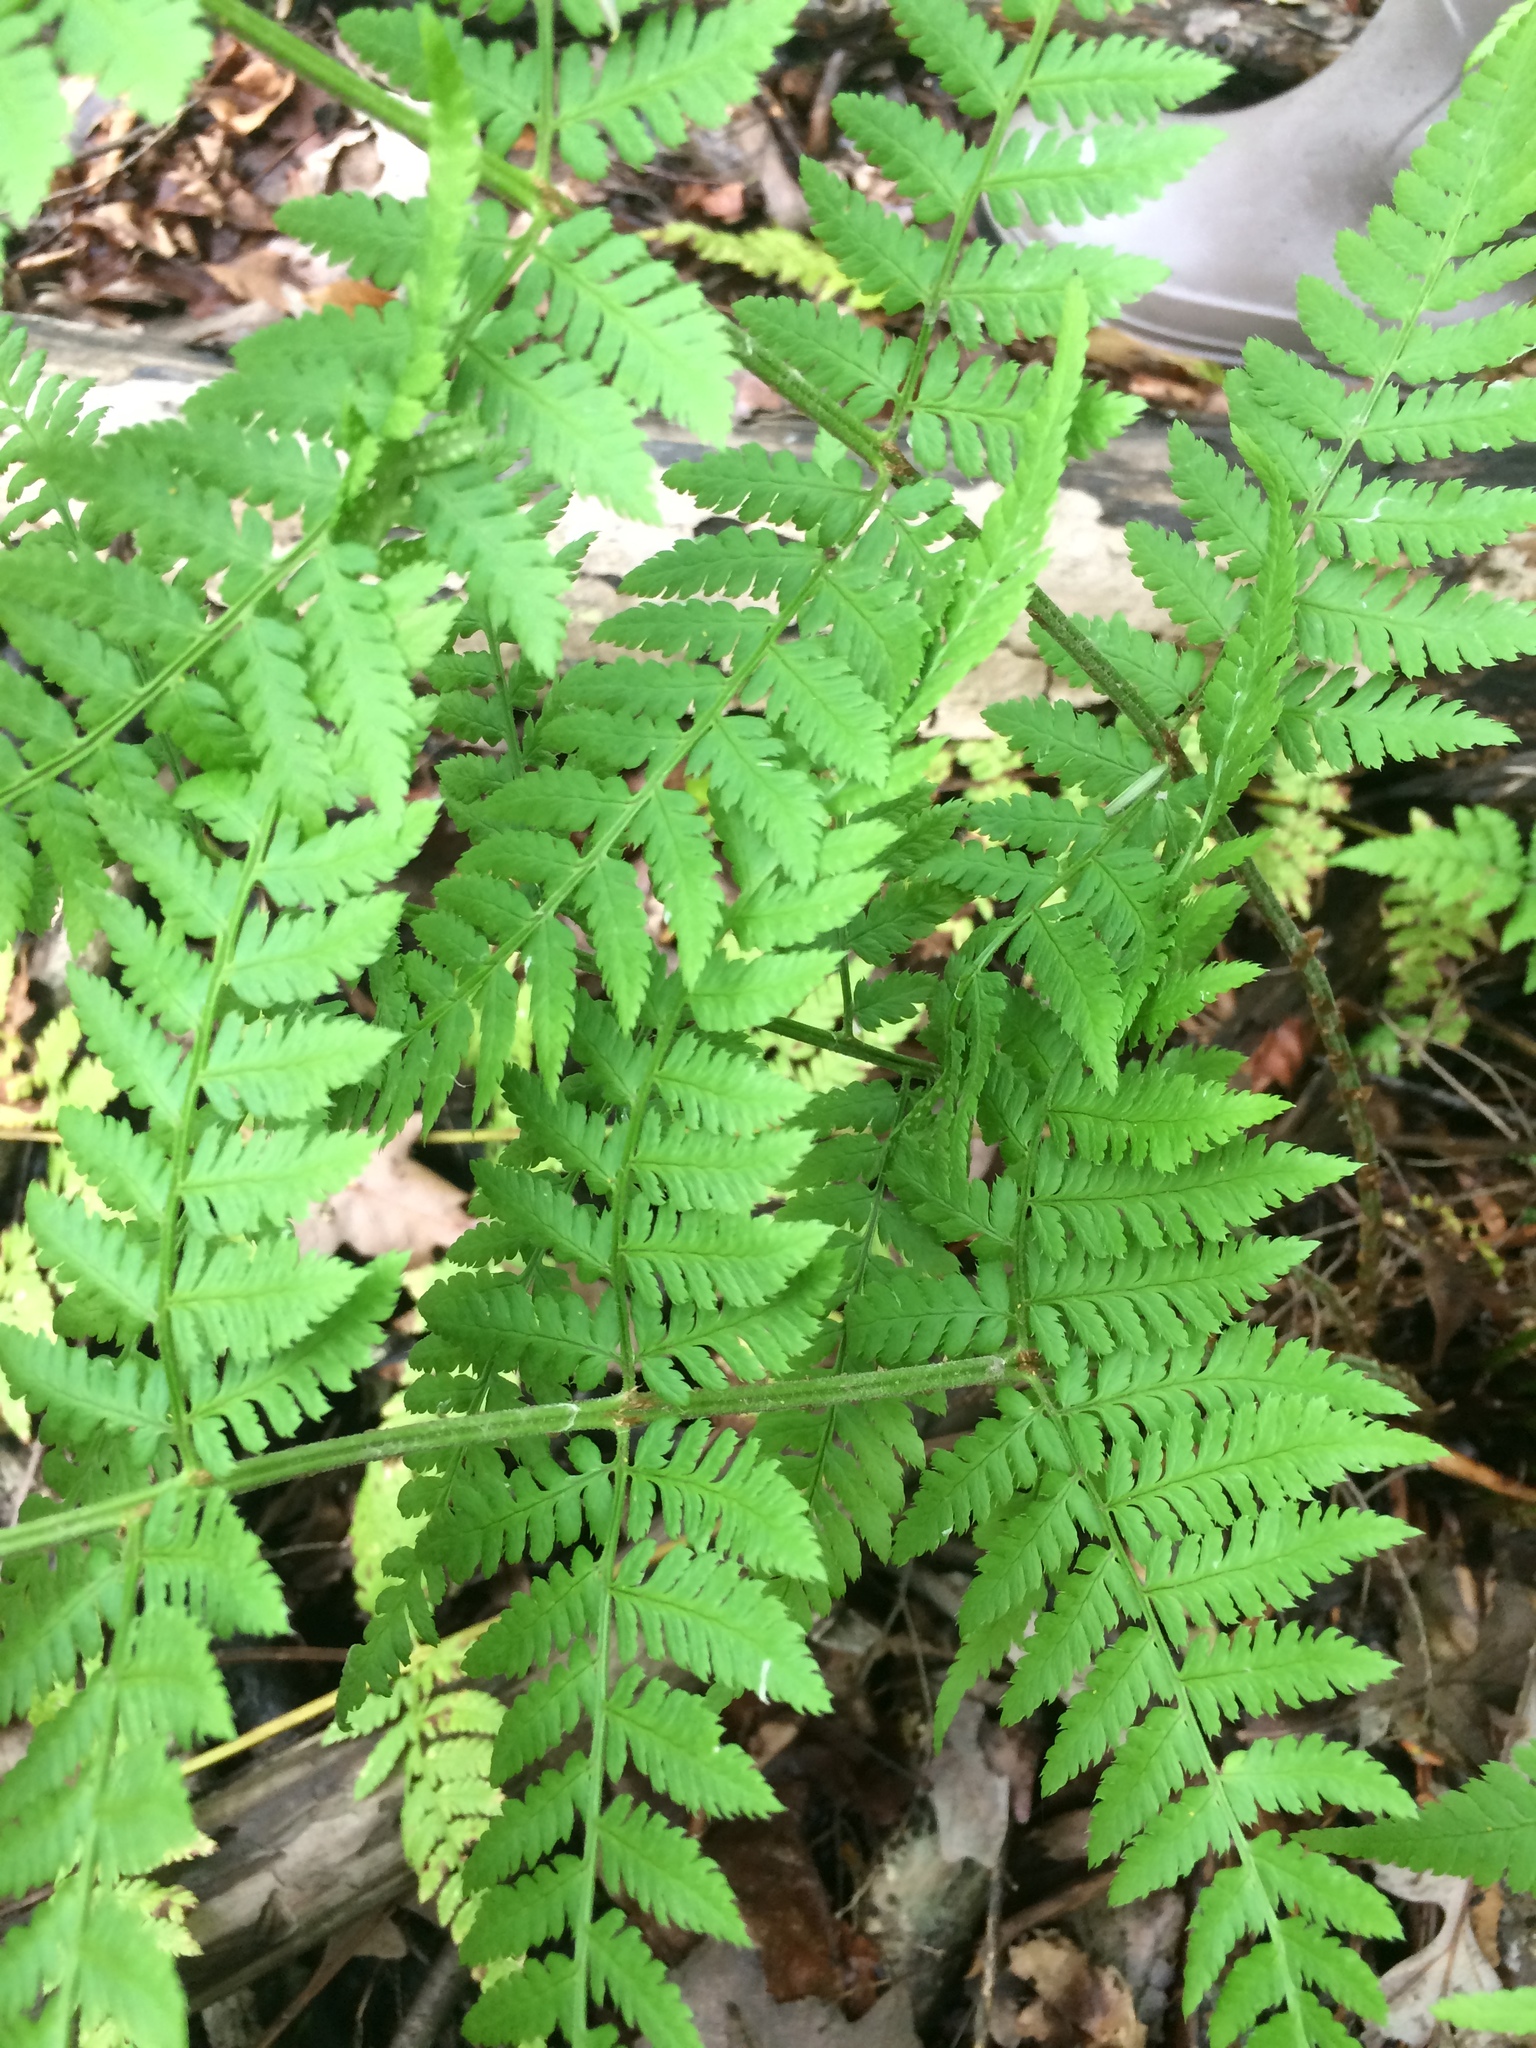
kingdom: Plantae
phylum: Tracheophyta
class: Polypodiopsida
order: Polypodiales
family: Dryopteridaceae
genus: Dryopteris
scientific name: Dryopteris intermedia
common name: Evergreen wood fern
